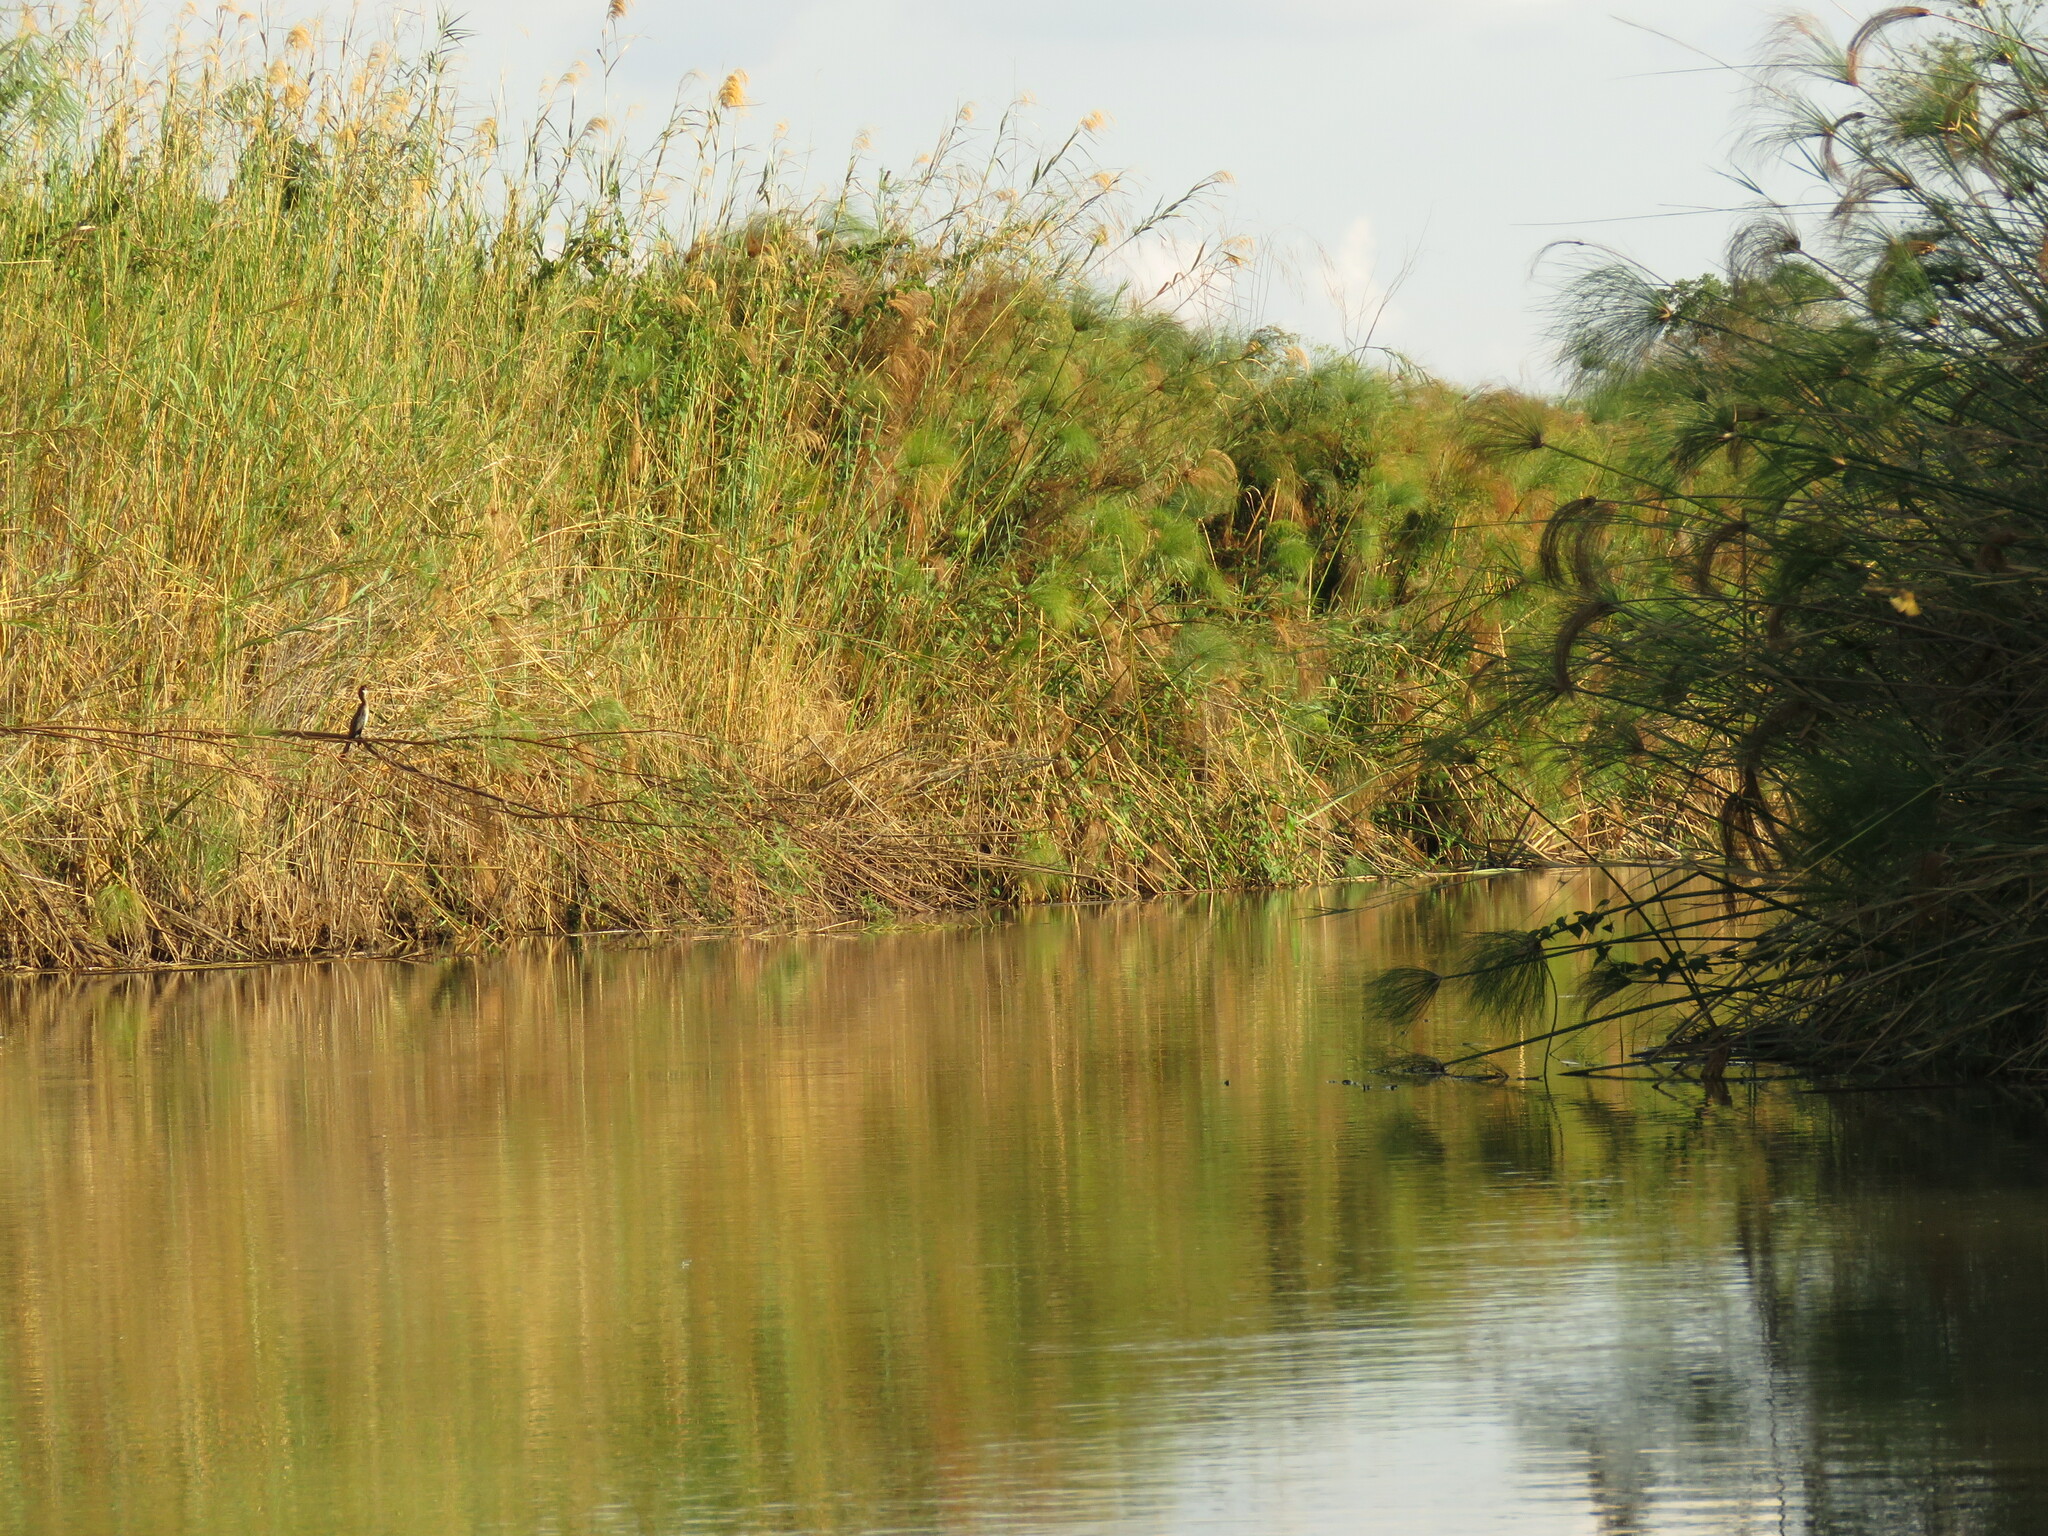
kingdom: Animalia
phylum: Chordata
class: Aves
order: Suliformes
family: Phalacrocoracidae
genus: Microcarbo
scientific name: Microcarbo africanus
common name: Long-tailed cormorant
